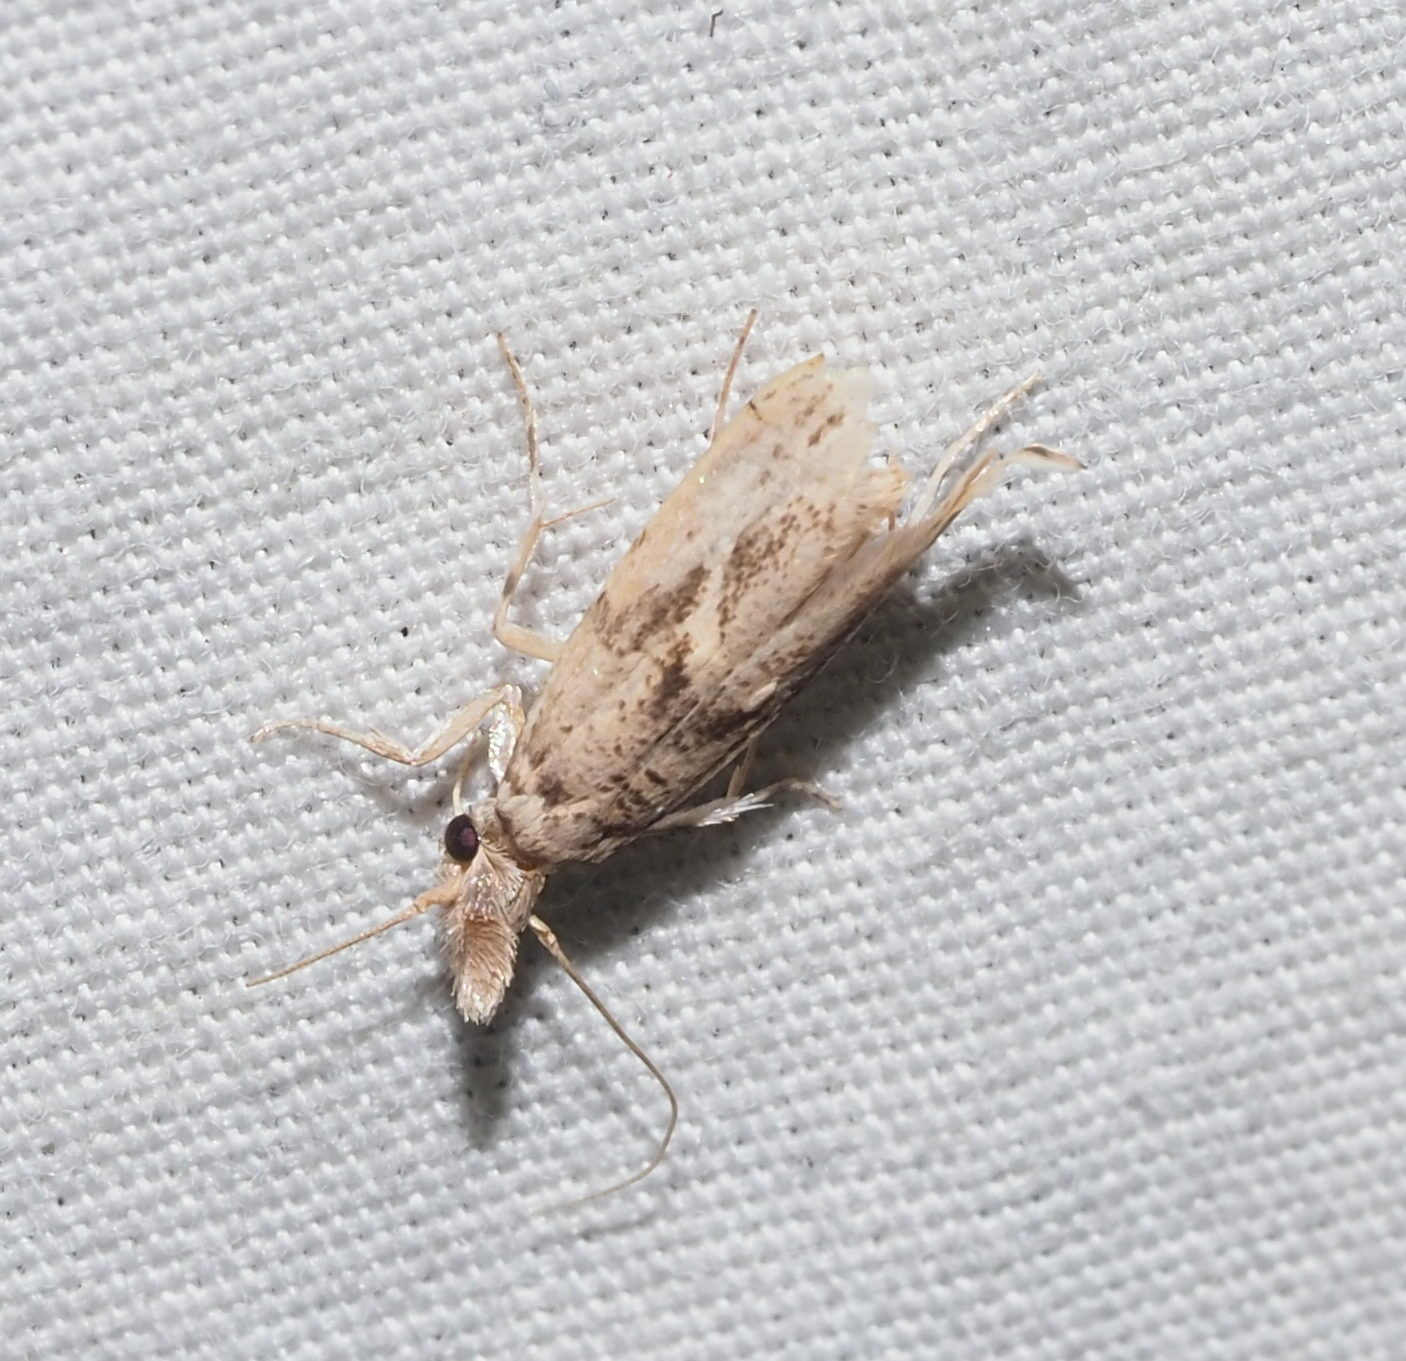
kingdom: Animalia
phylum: Arthropoda
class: Insecta
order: Lepidoptera
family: Tineidae
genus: Erechthias
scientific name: Erechthias pelotricha
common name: Fungus moth
